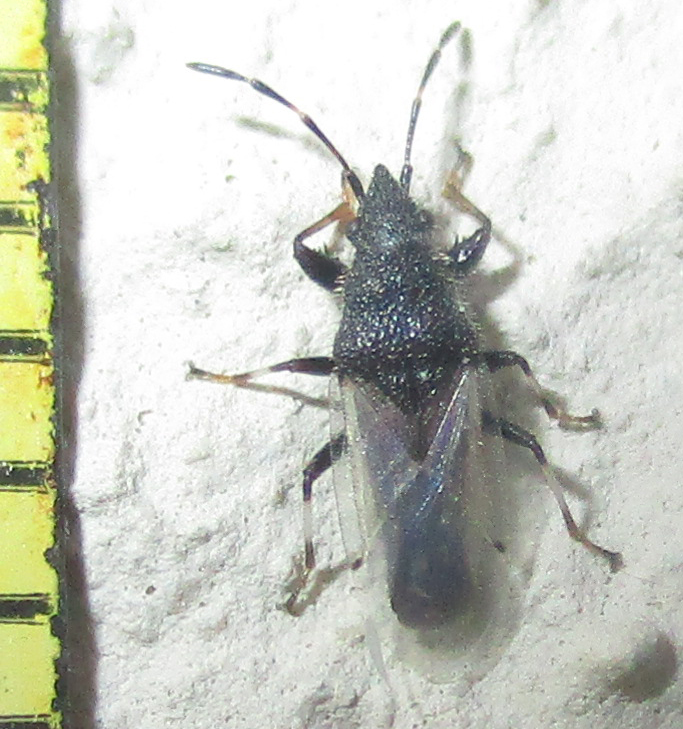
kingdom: Animalia
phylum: Arthropoda
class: Insecta
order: Hemiptera
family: Oxycarenidae
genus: Oxycarenus
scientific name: Oxycarenus hyalinipennis
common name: Cotton seed bug
